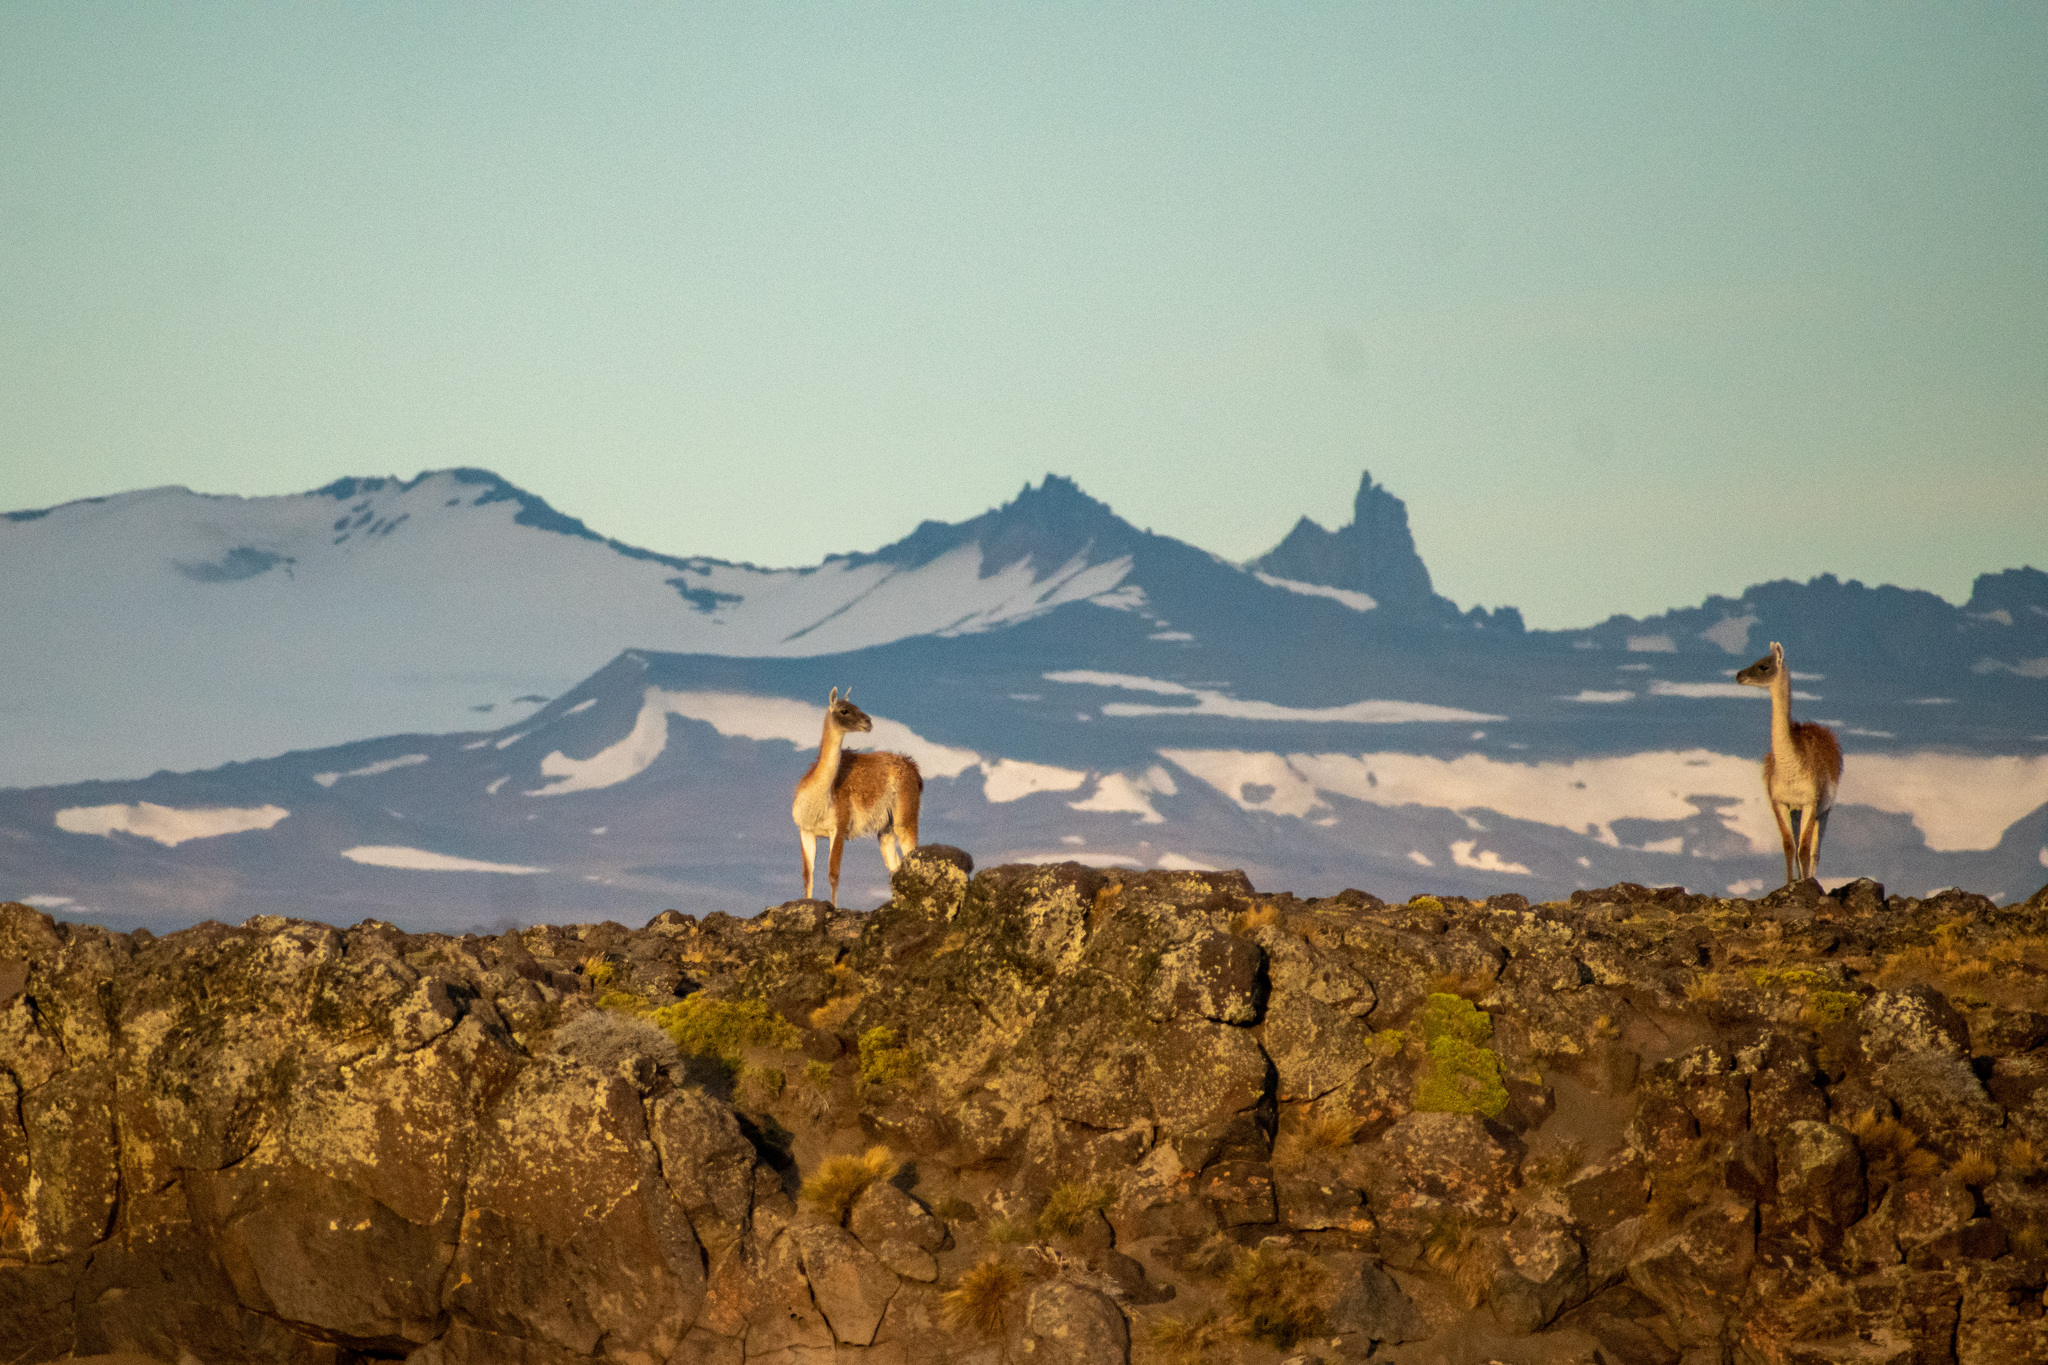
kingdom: Animalia
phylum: Chordata
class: Mammalia
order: Artiodactyla
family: Camelidae
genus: Lama
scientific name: Lama glama
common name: Llama
